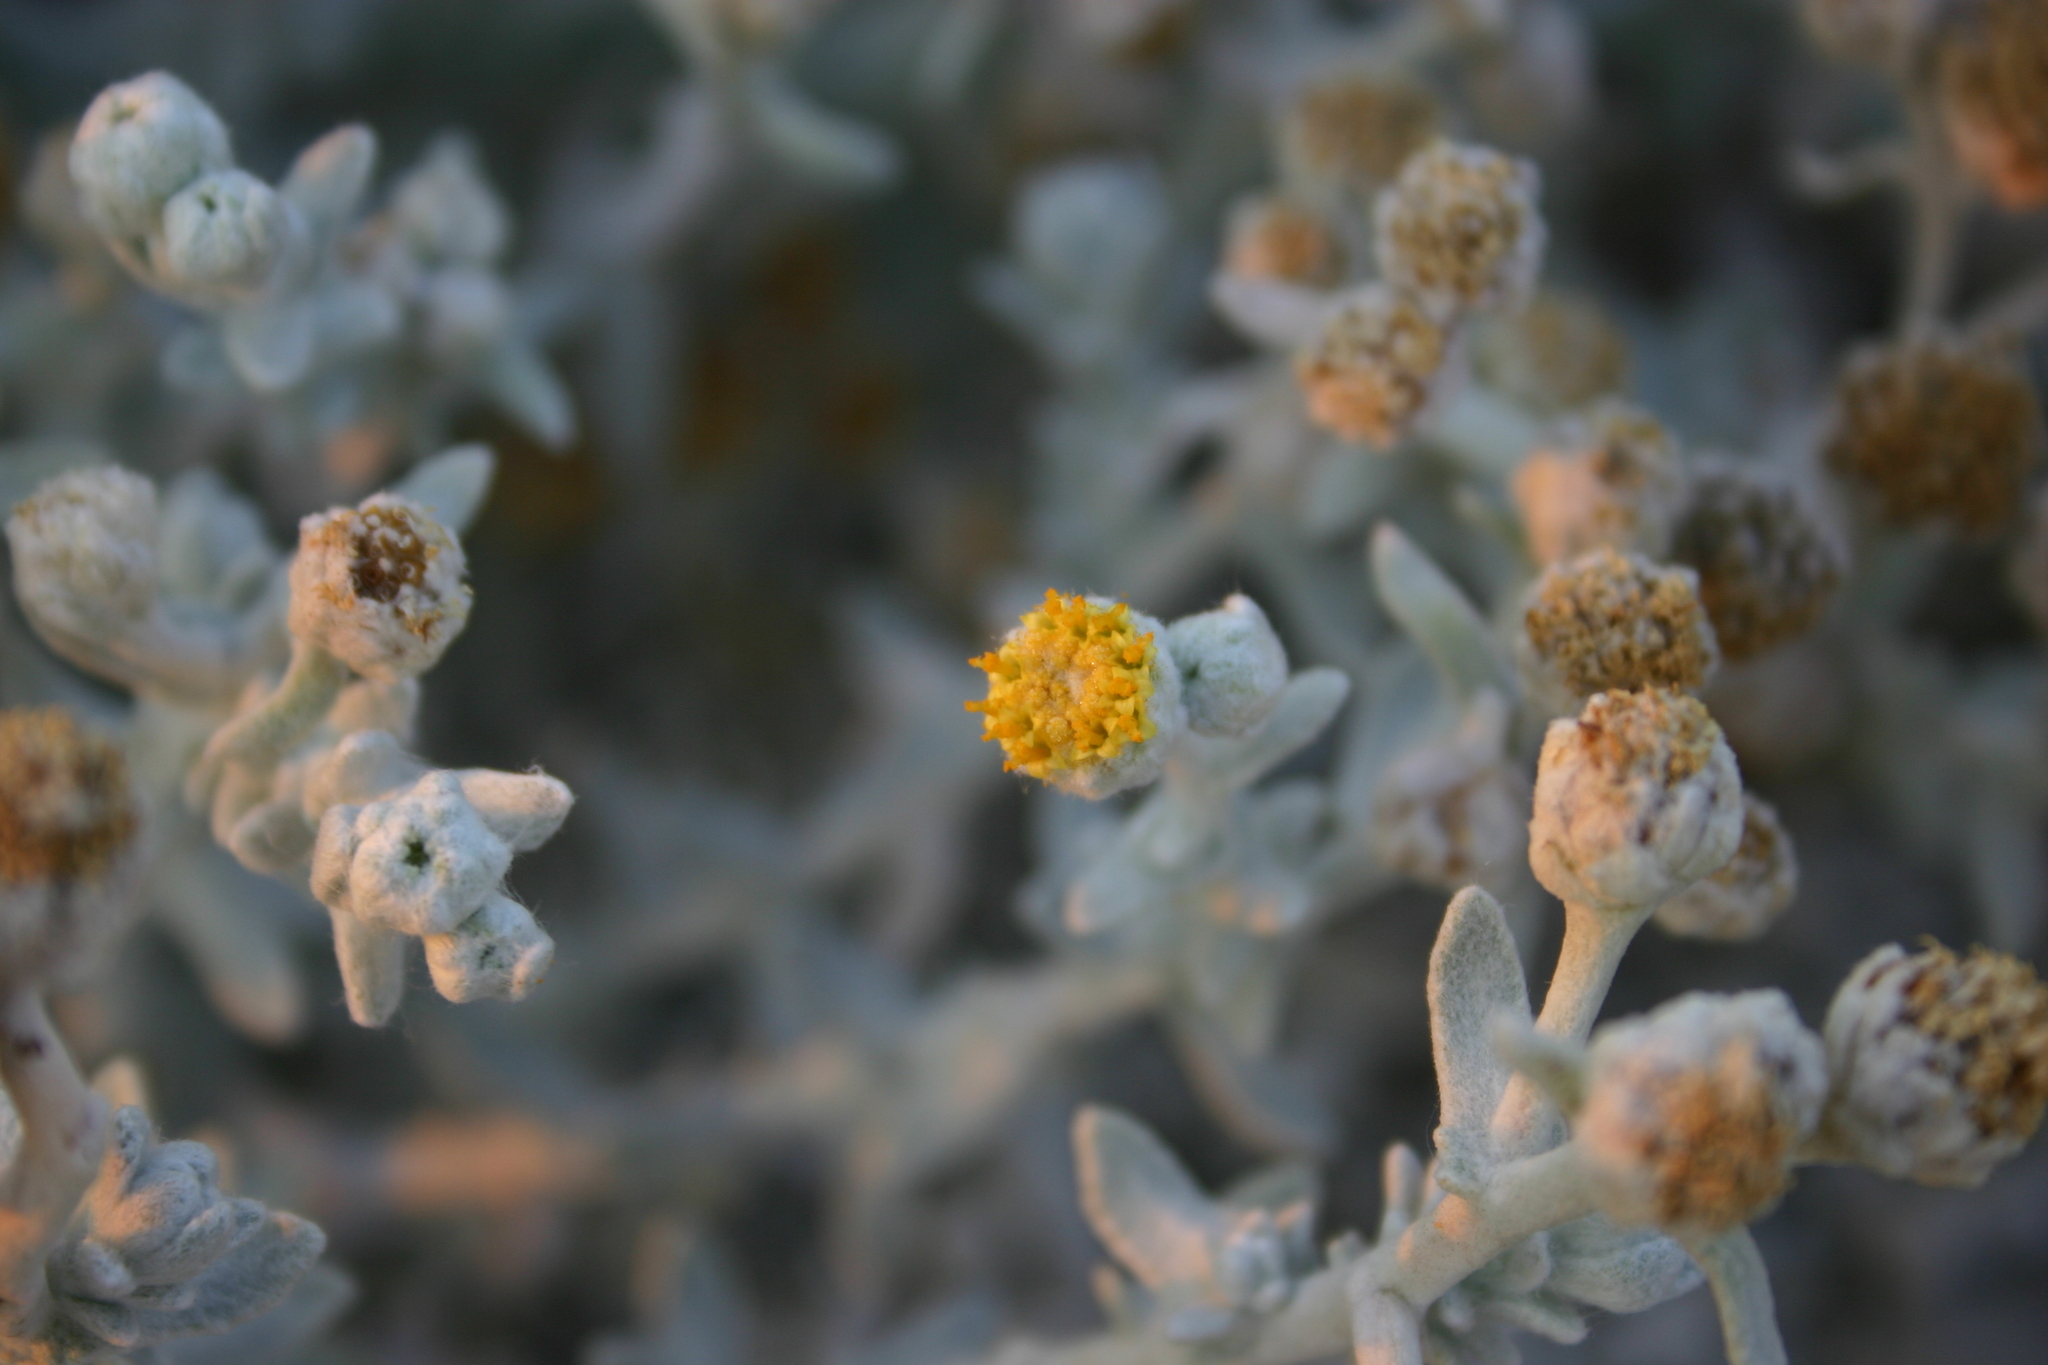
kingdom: Plantae
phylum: Tracheophyta
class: Magnoliopsida
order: Asterales
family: Asteraceae
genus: Achillea
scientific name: Achillea maritima
